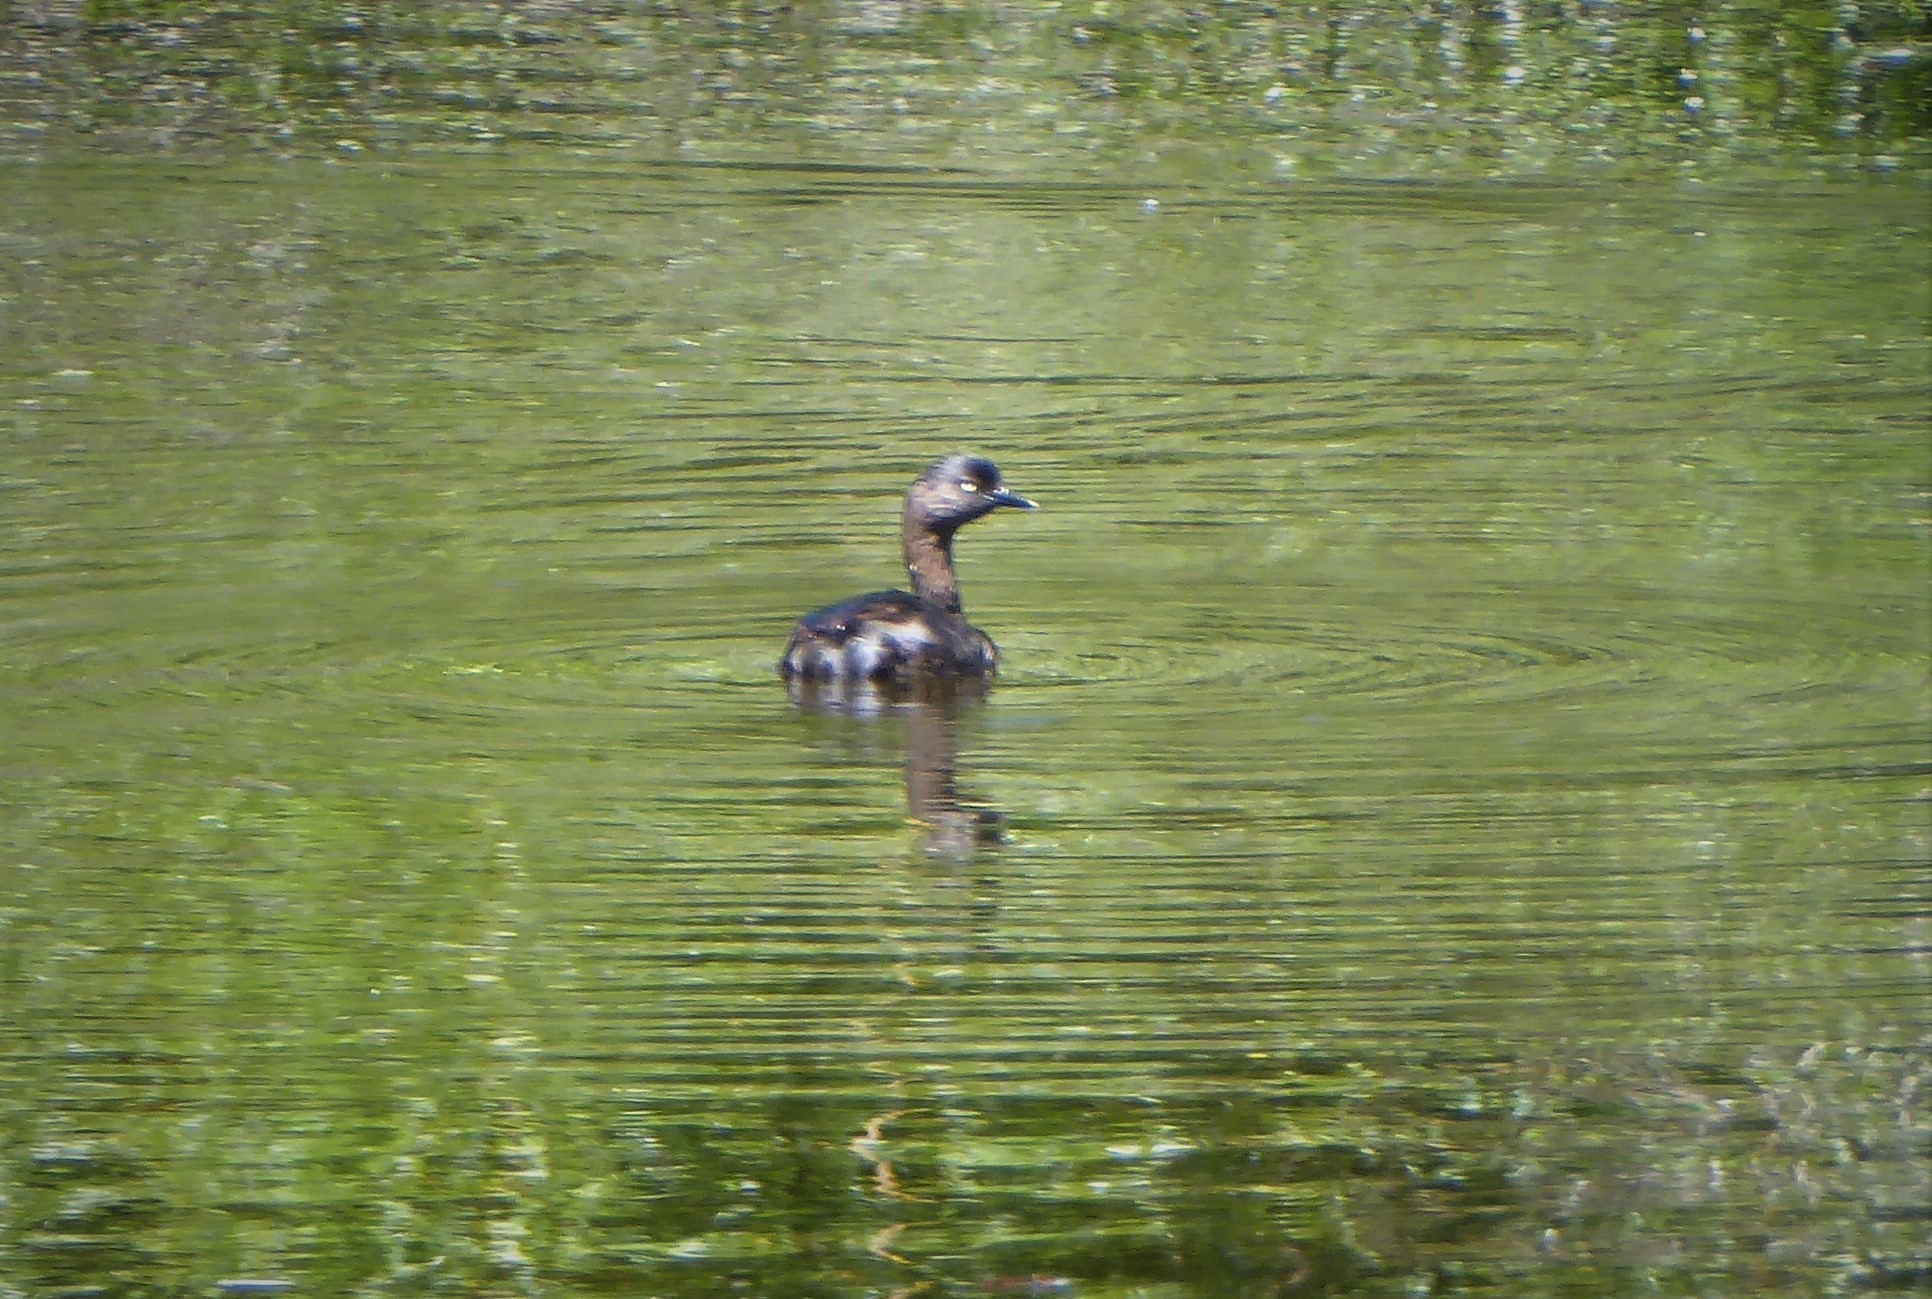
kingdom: Animalia
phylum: Chordata
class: Aves
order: Podicipediformes
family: Podicipedidae
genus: Poliocephalus
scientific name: Poliocephalus rufopectus
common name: New zealand grebe
